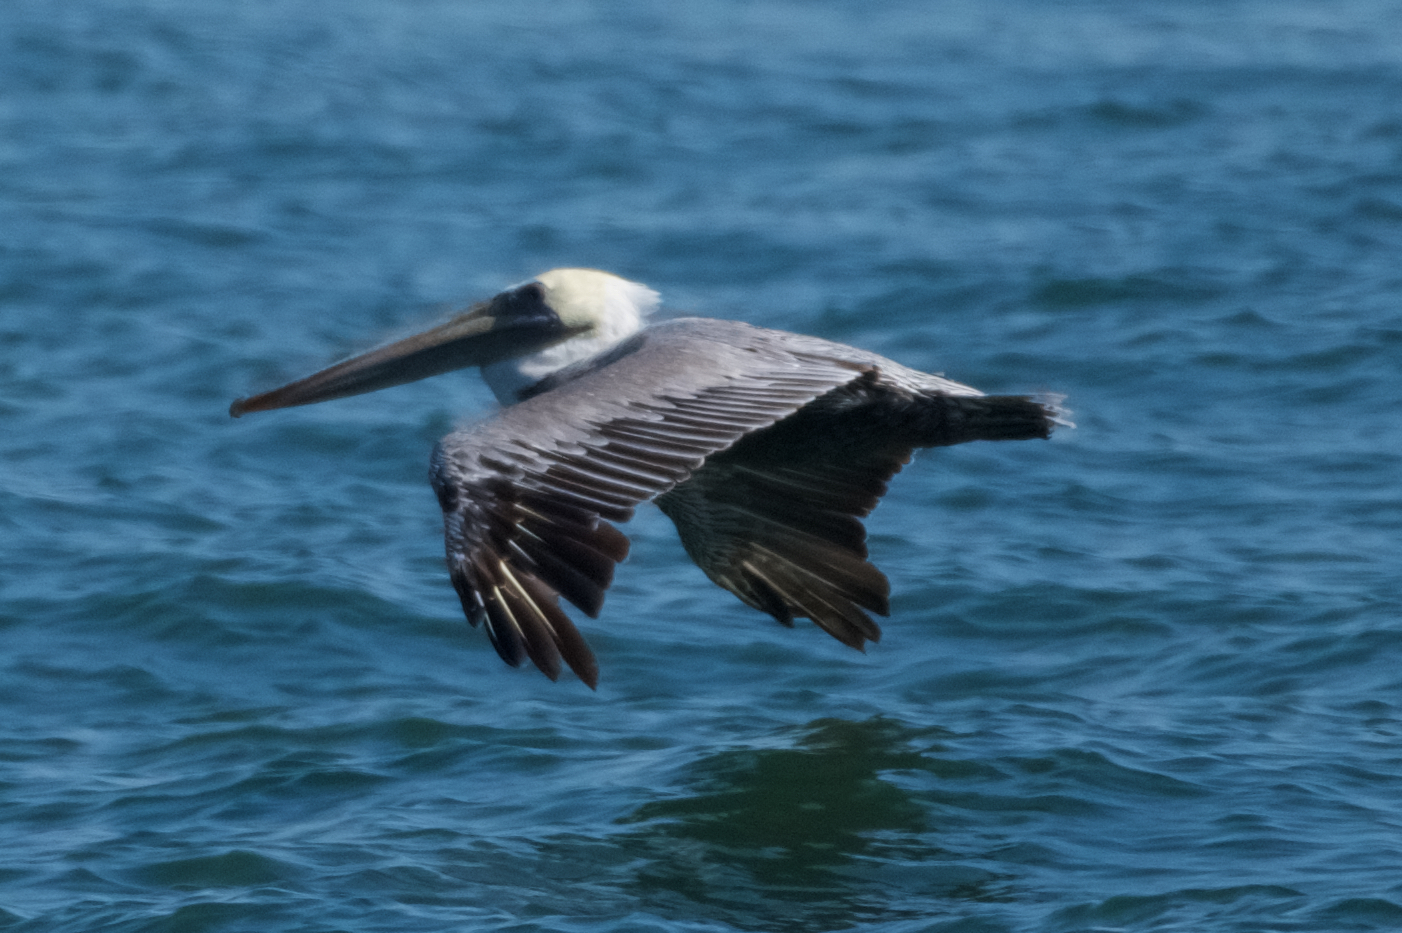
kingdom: Animalia
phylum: Chordata
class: Aves
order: Pelecaniformes
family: Pelecanidae
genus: Pelecanus
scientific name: Pelecanus occidentalis
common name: Brown pelican
